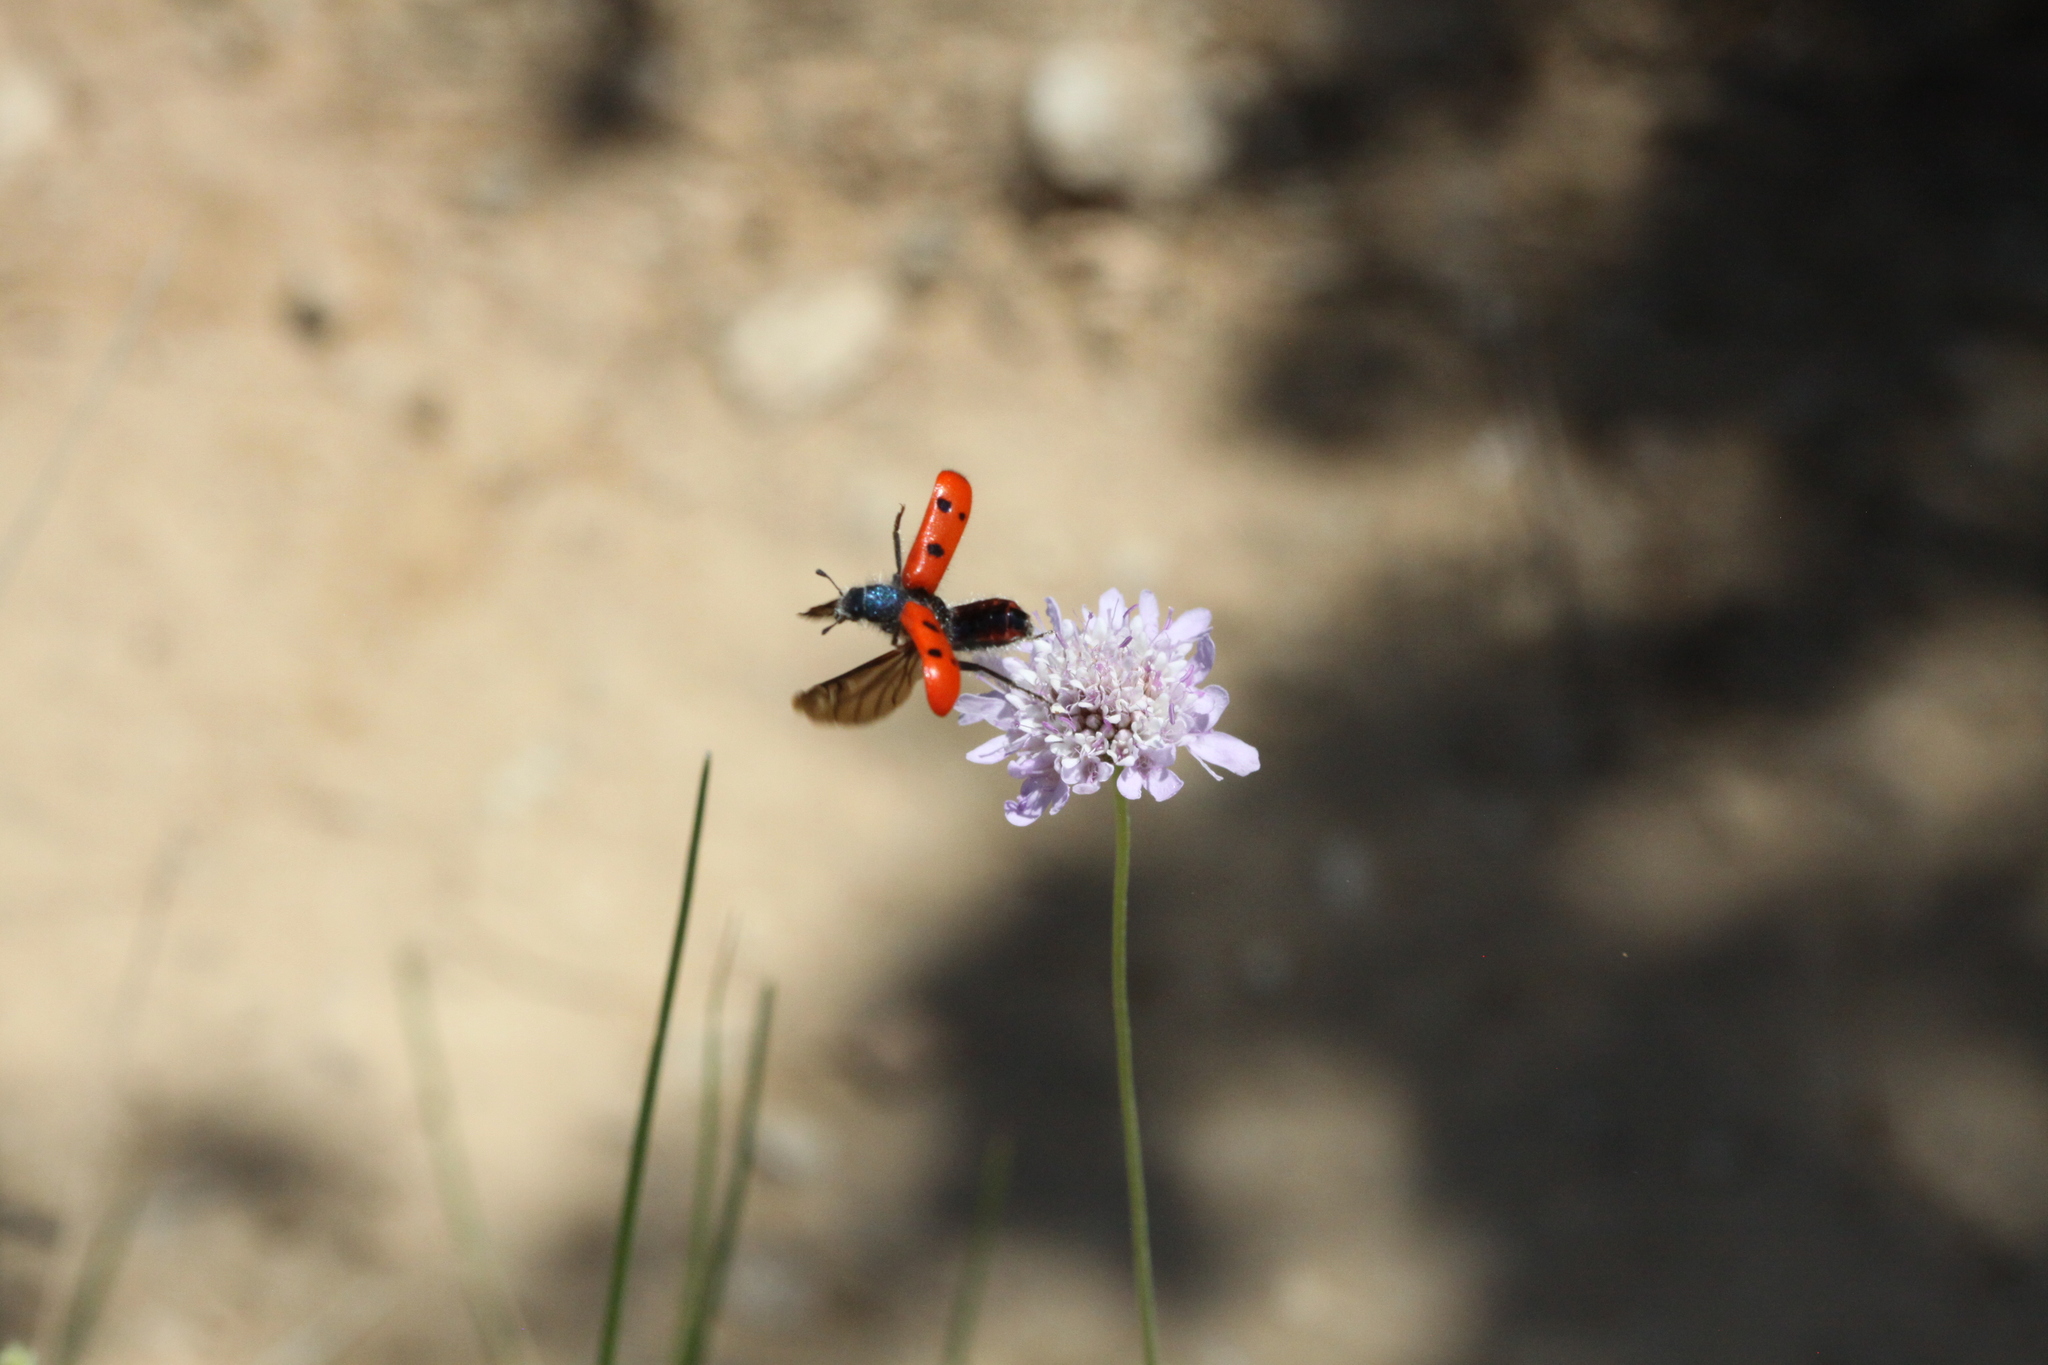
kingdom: Animalia
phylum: Arthropoda
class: Insecta
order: Coleoptera
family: Cleridae
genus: Trichodes
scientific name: Trichodes octopunctatus
